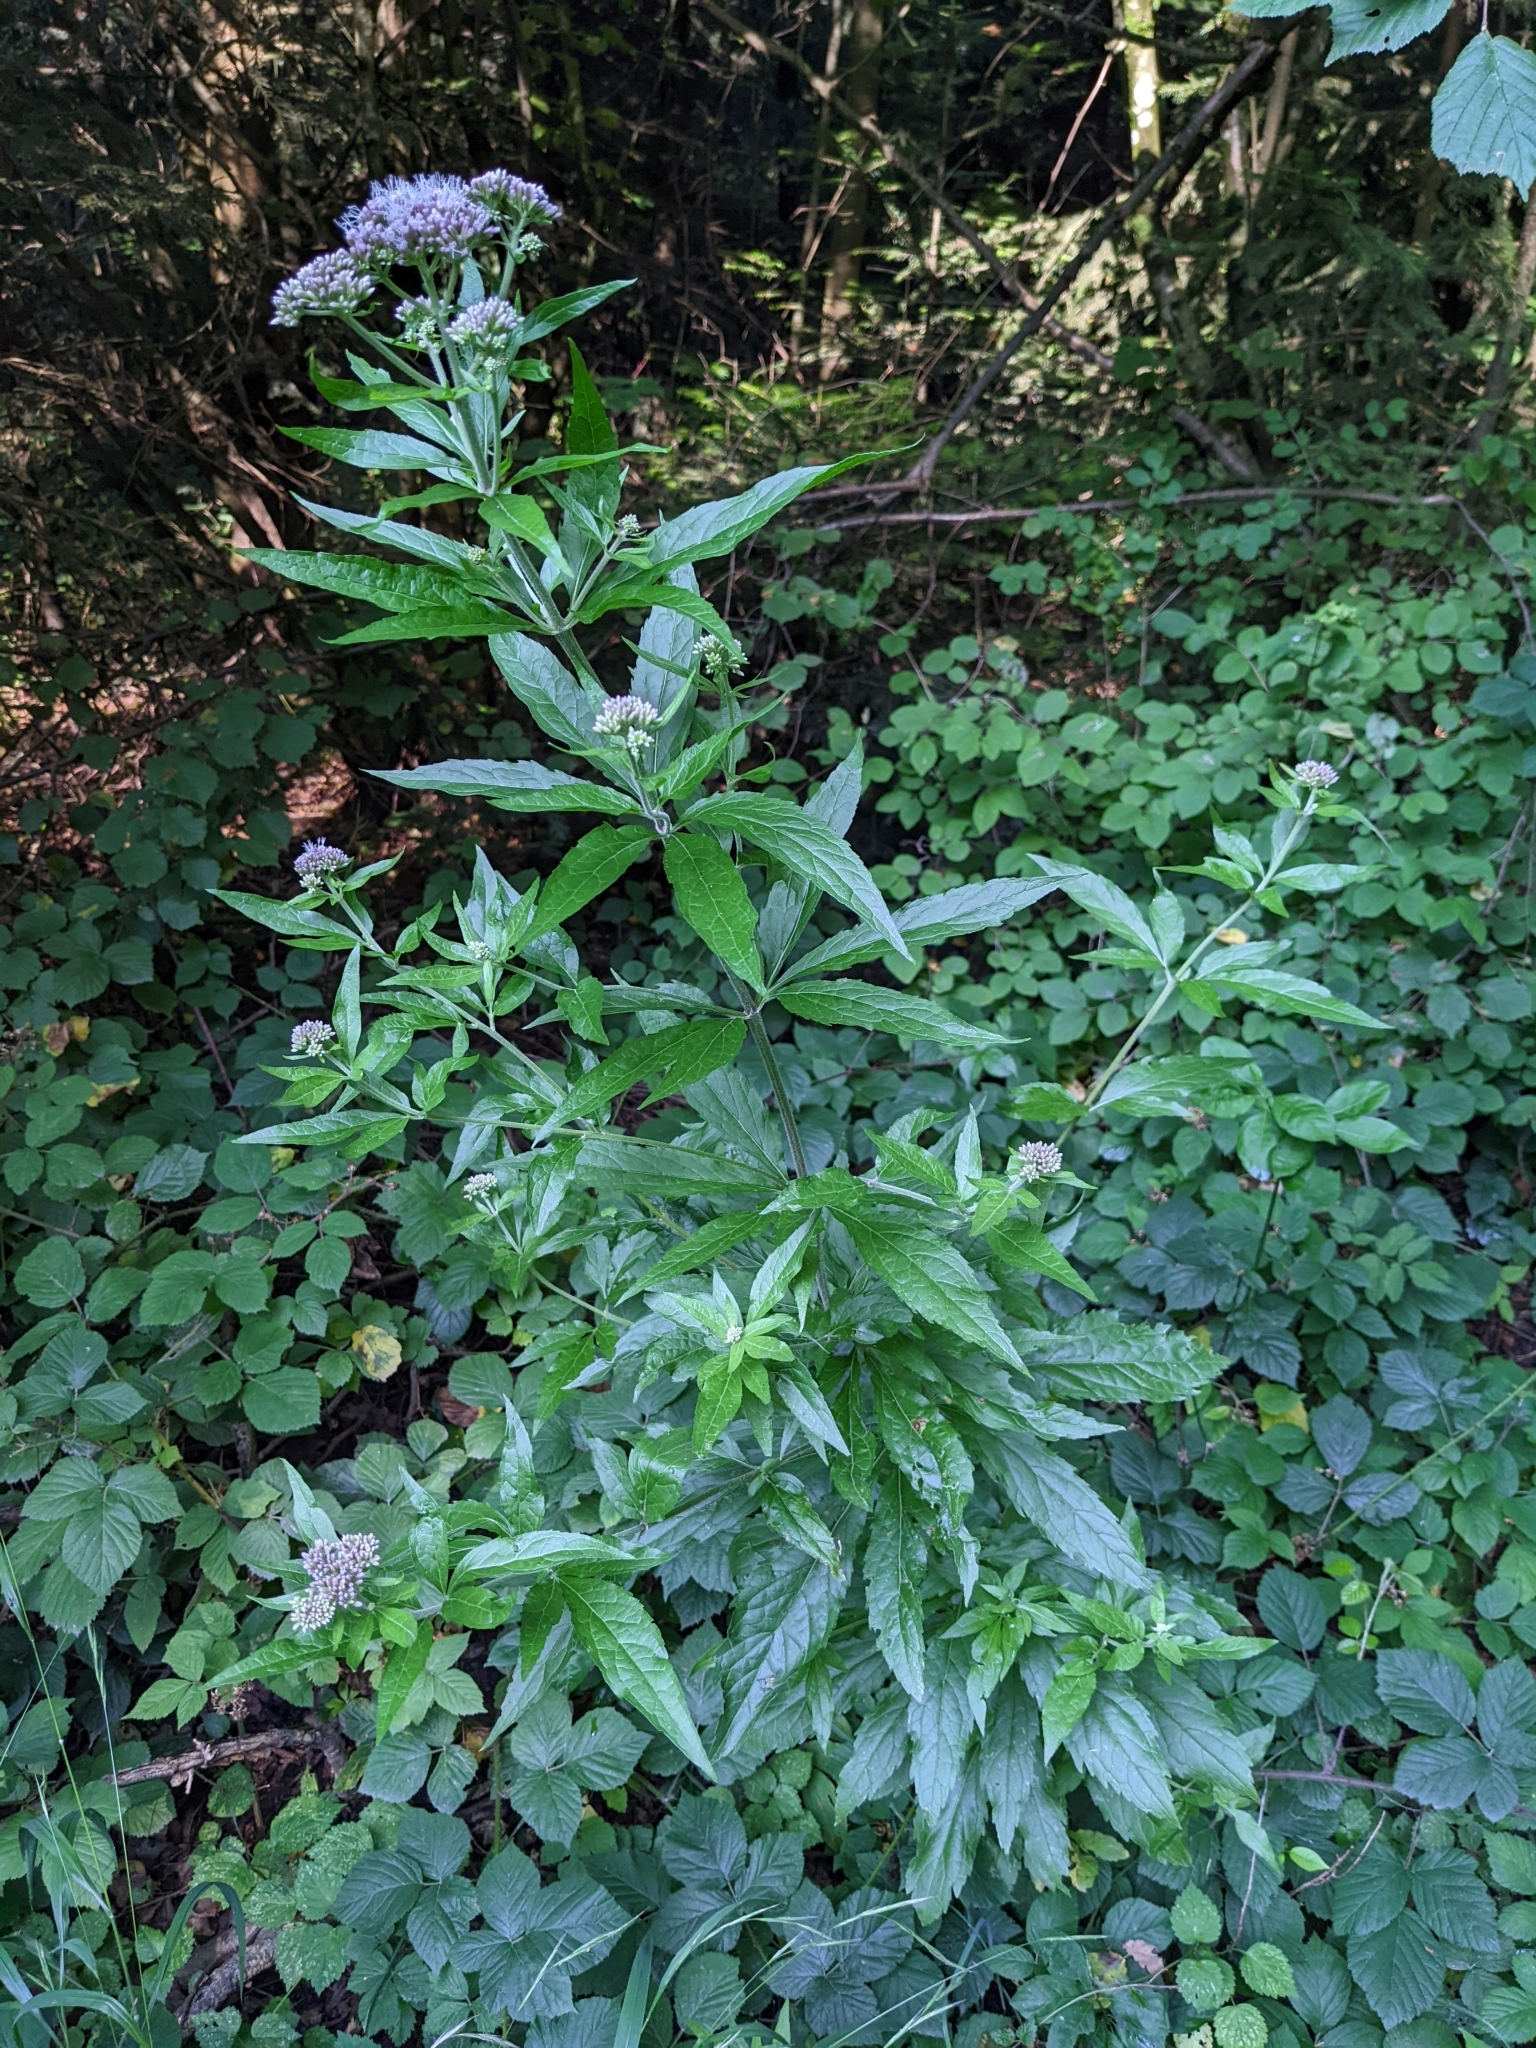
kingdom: Plantae
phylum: Tracheophyta
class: Magnoliopsida
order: Asterales
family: Asteraceae
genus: Eupatorium
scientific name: Eupatorium cannabinum
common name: Hemp-agrimony
